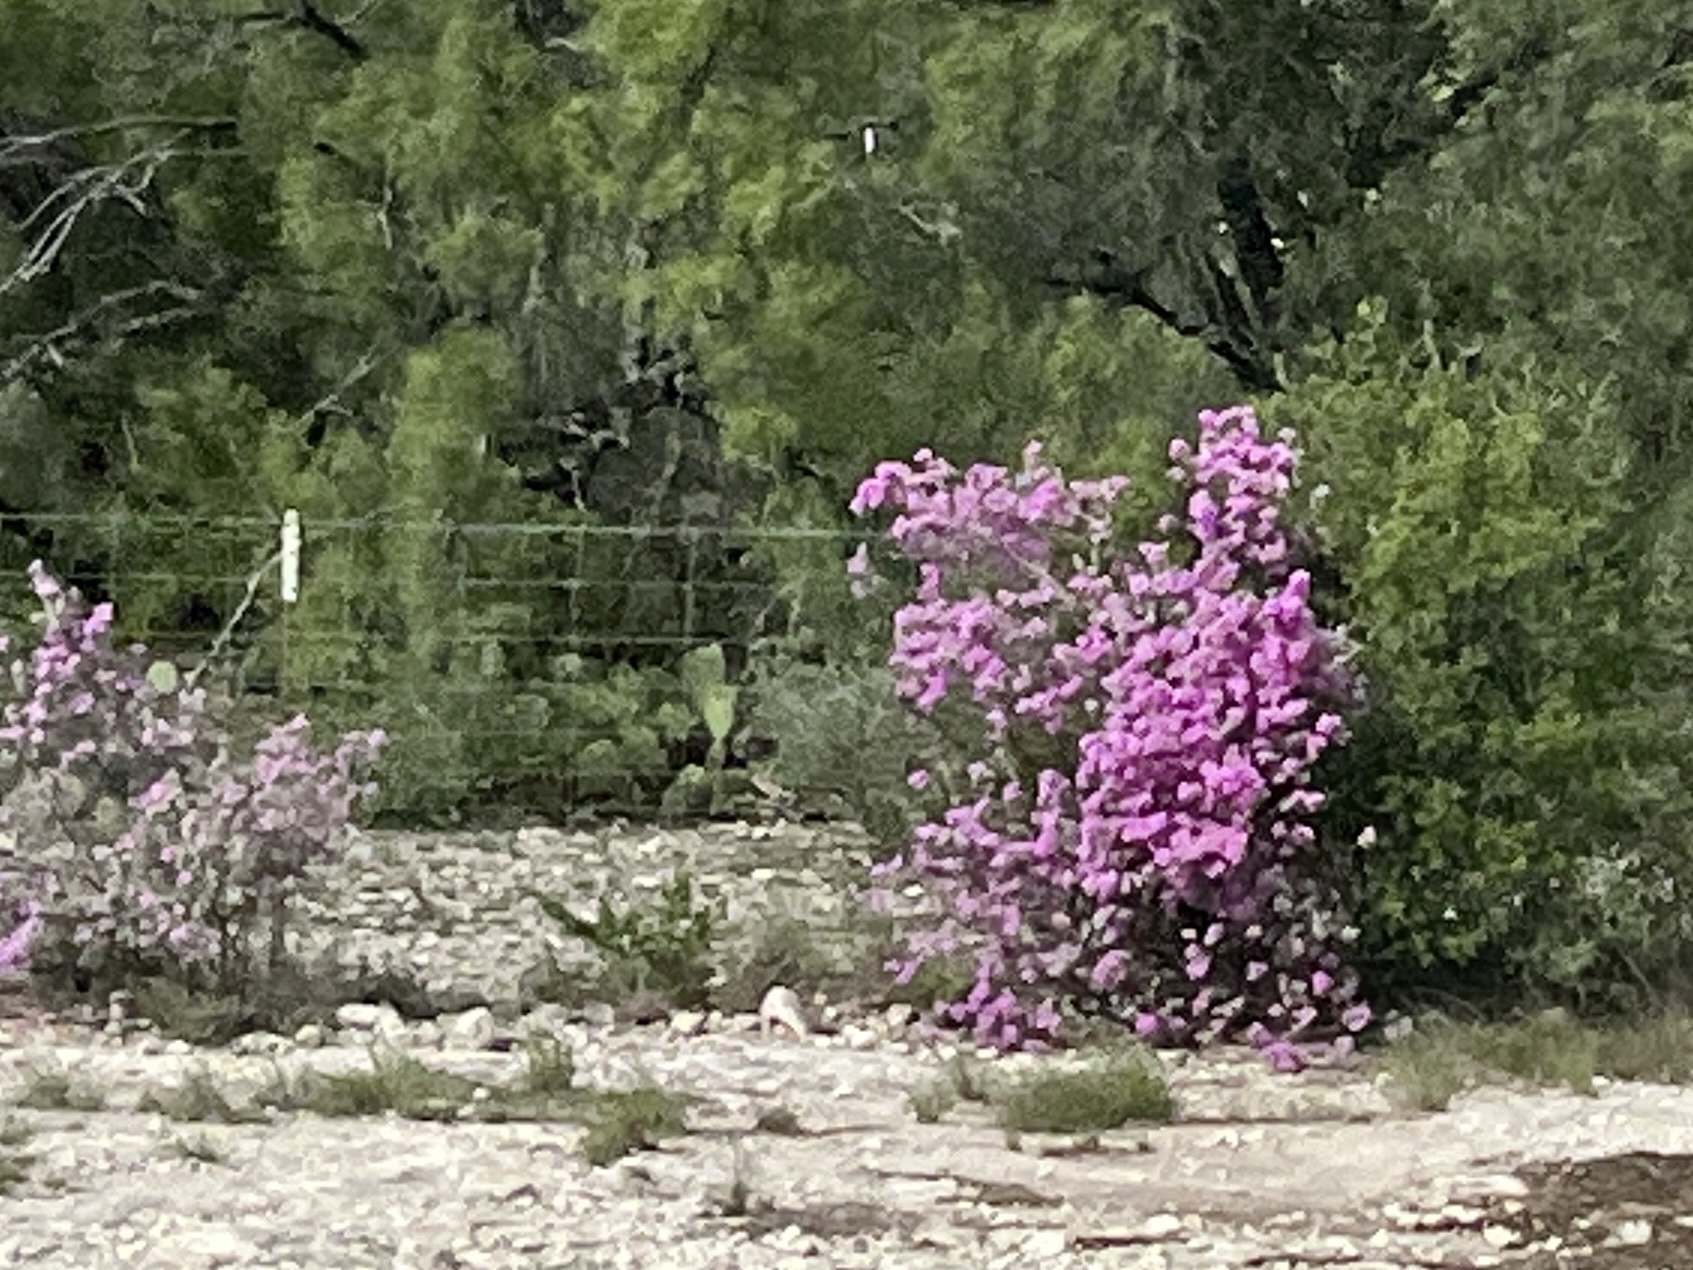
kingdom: Plantae
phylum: Tracheophyta
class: Magnoliopsida
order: Lamiales
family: Scrophulariaceae
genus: Leucophyllum
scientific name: Leucophyllum frutescens
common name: Texas silverleaf
